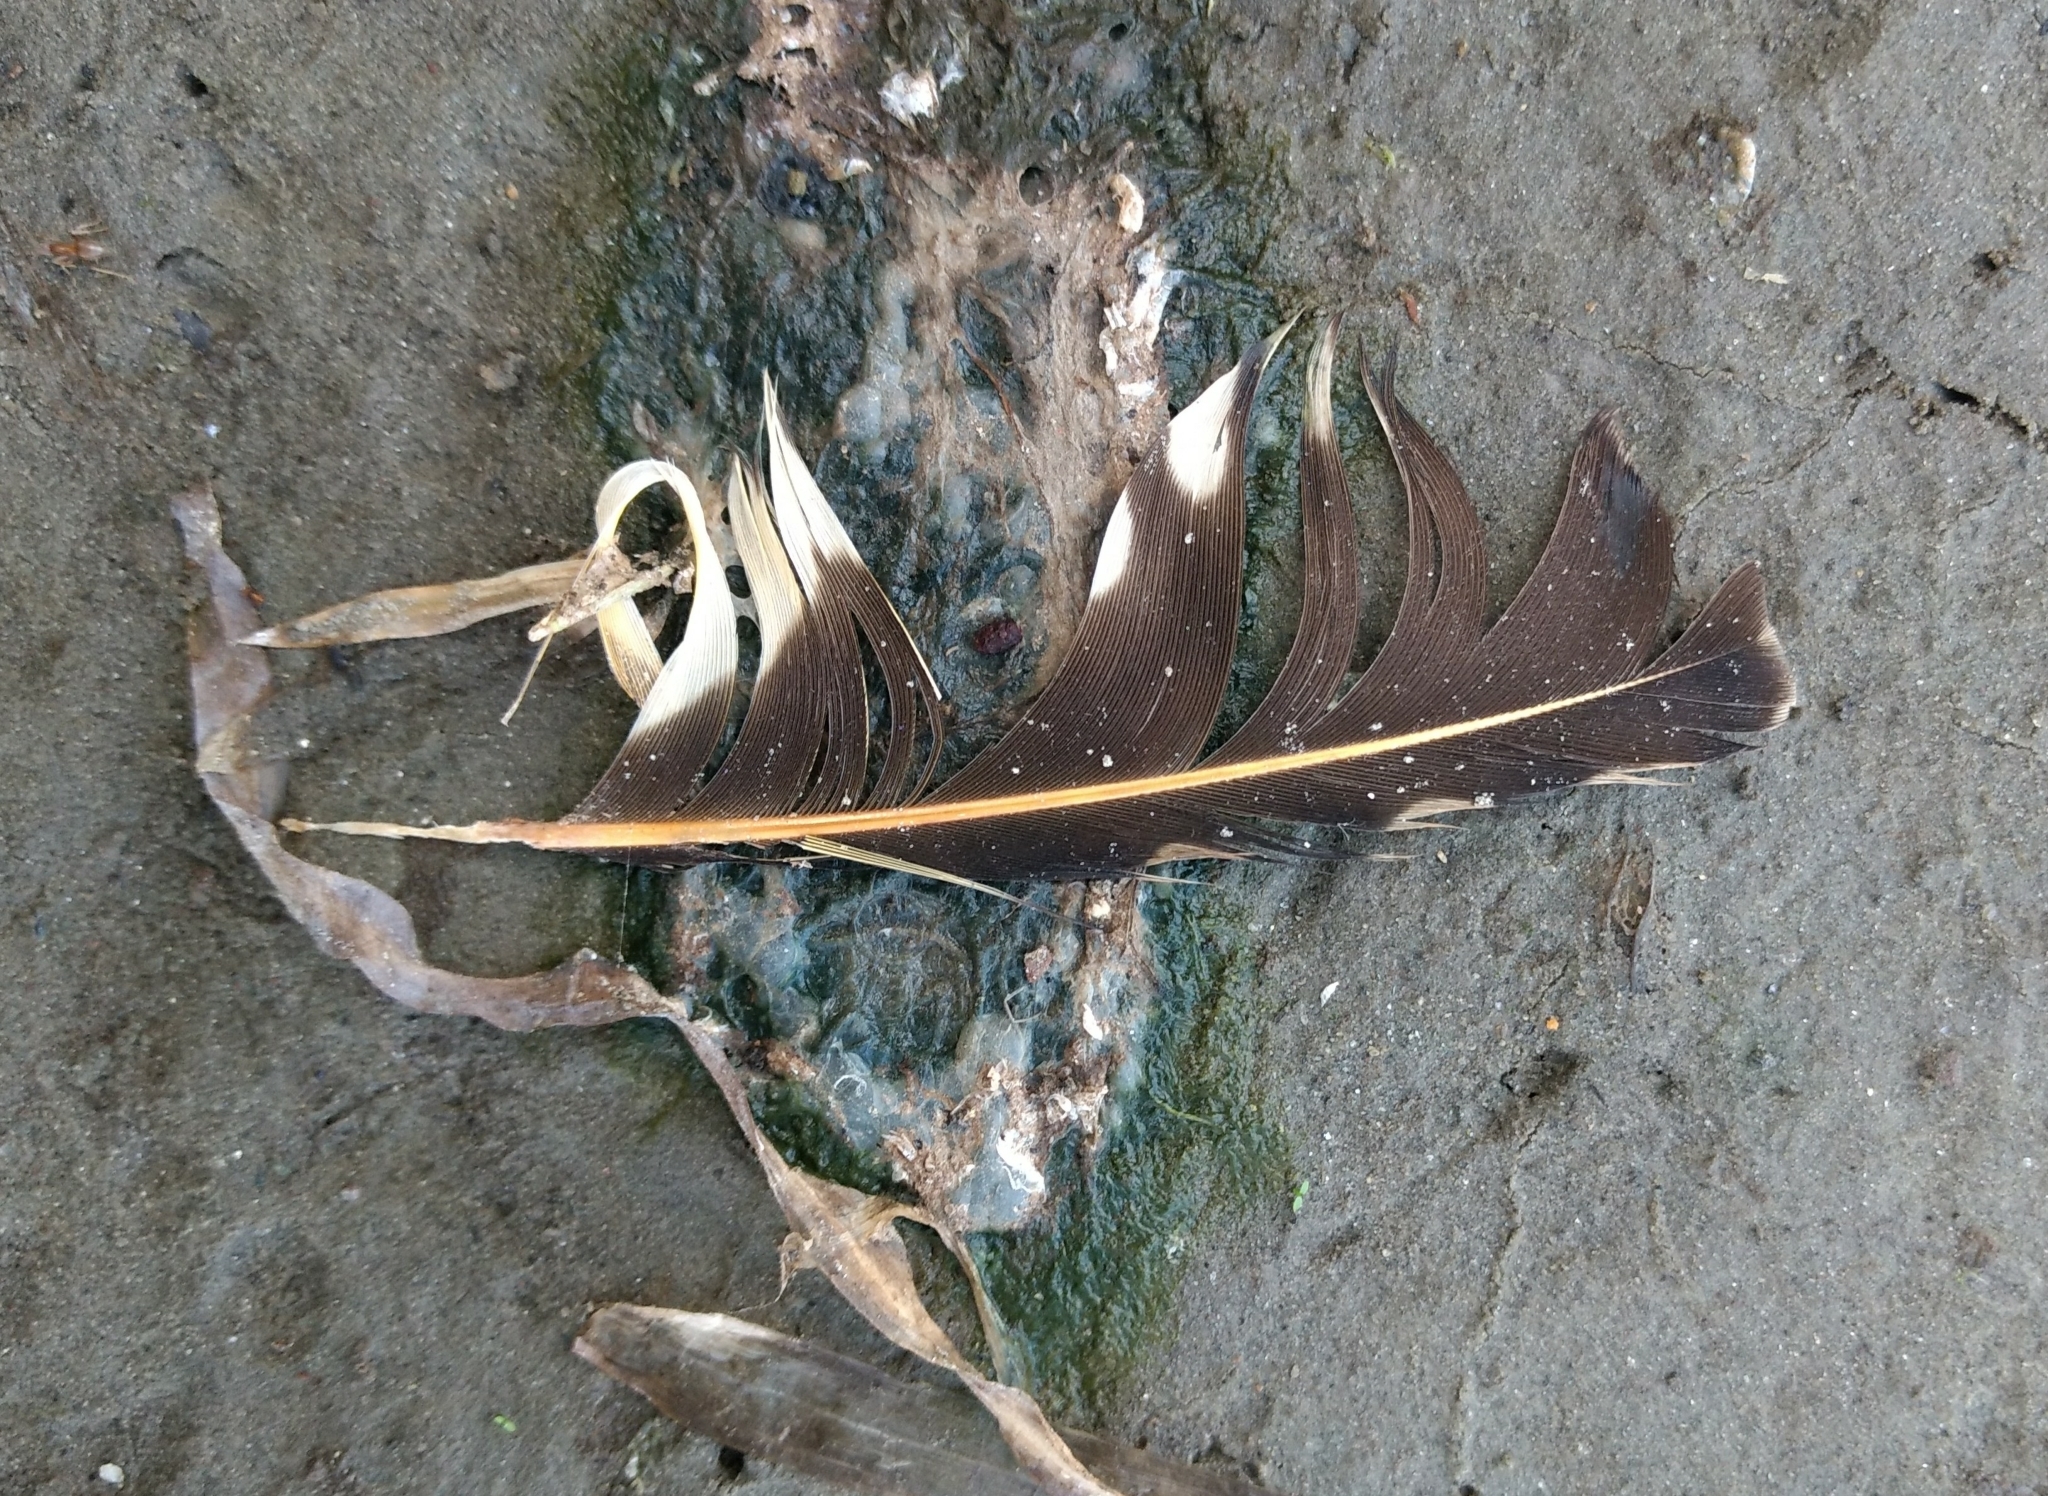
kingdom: Animalia
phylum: Chordata
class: Aves
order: Piciformes
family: Picidae
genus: Colaptes
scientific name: Colaptes auratus
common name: Northern flicker
